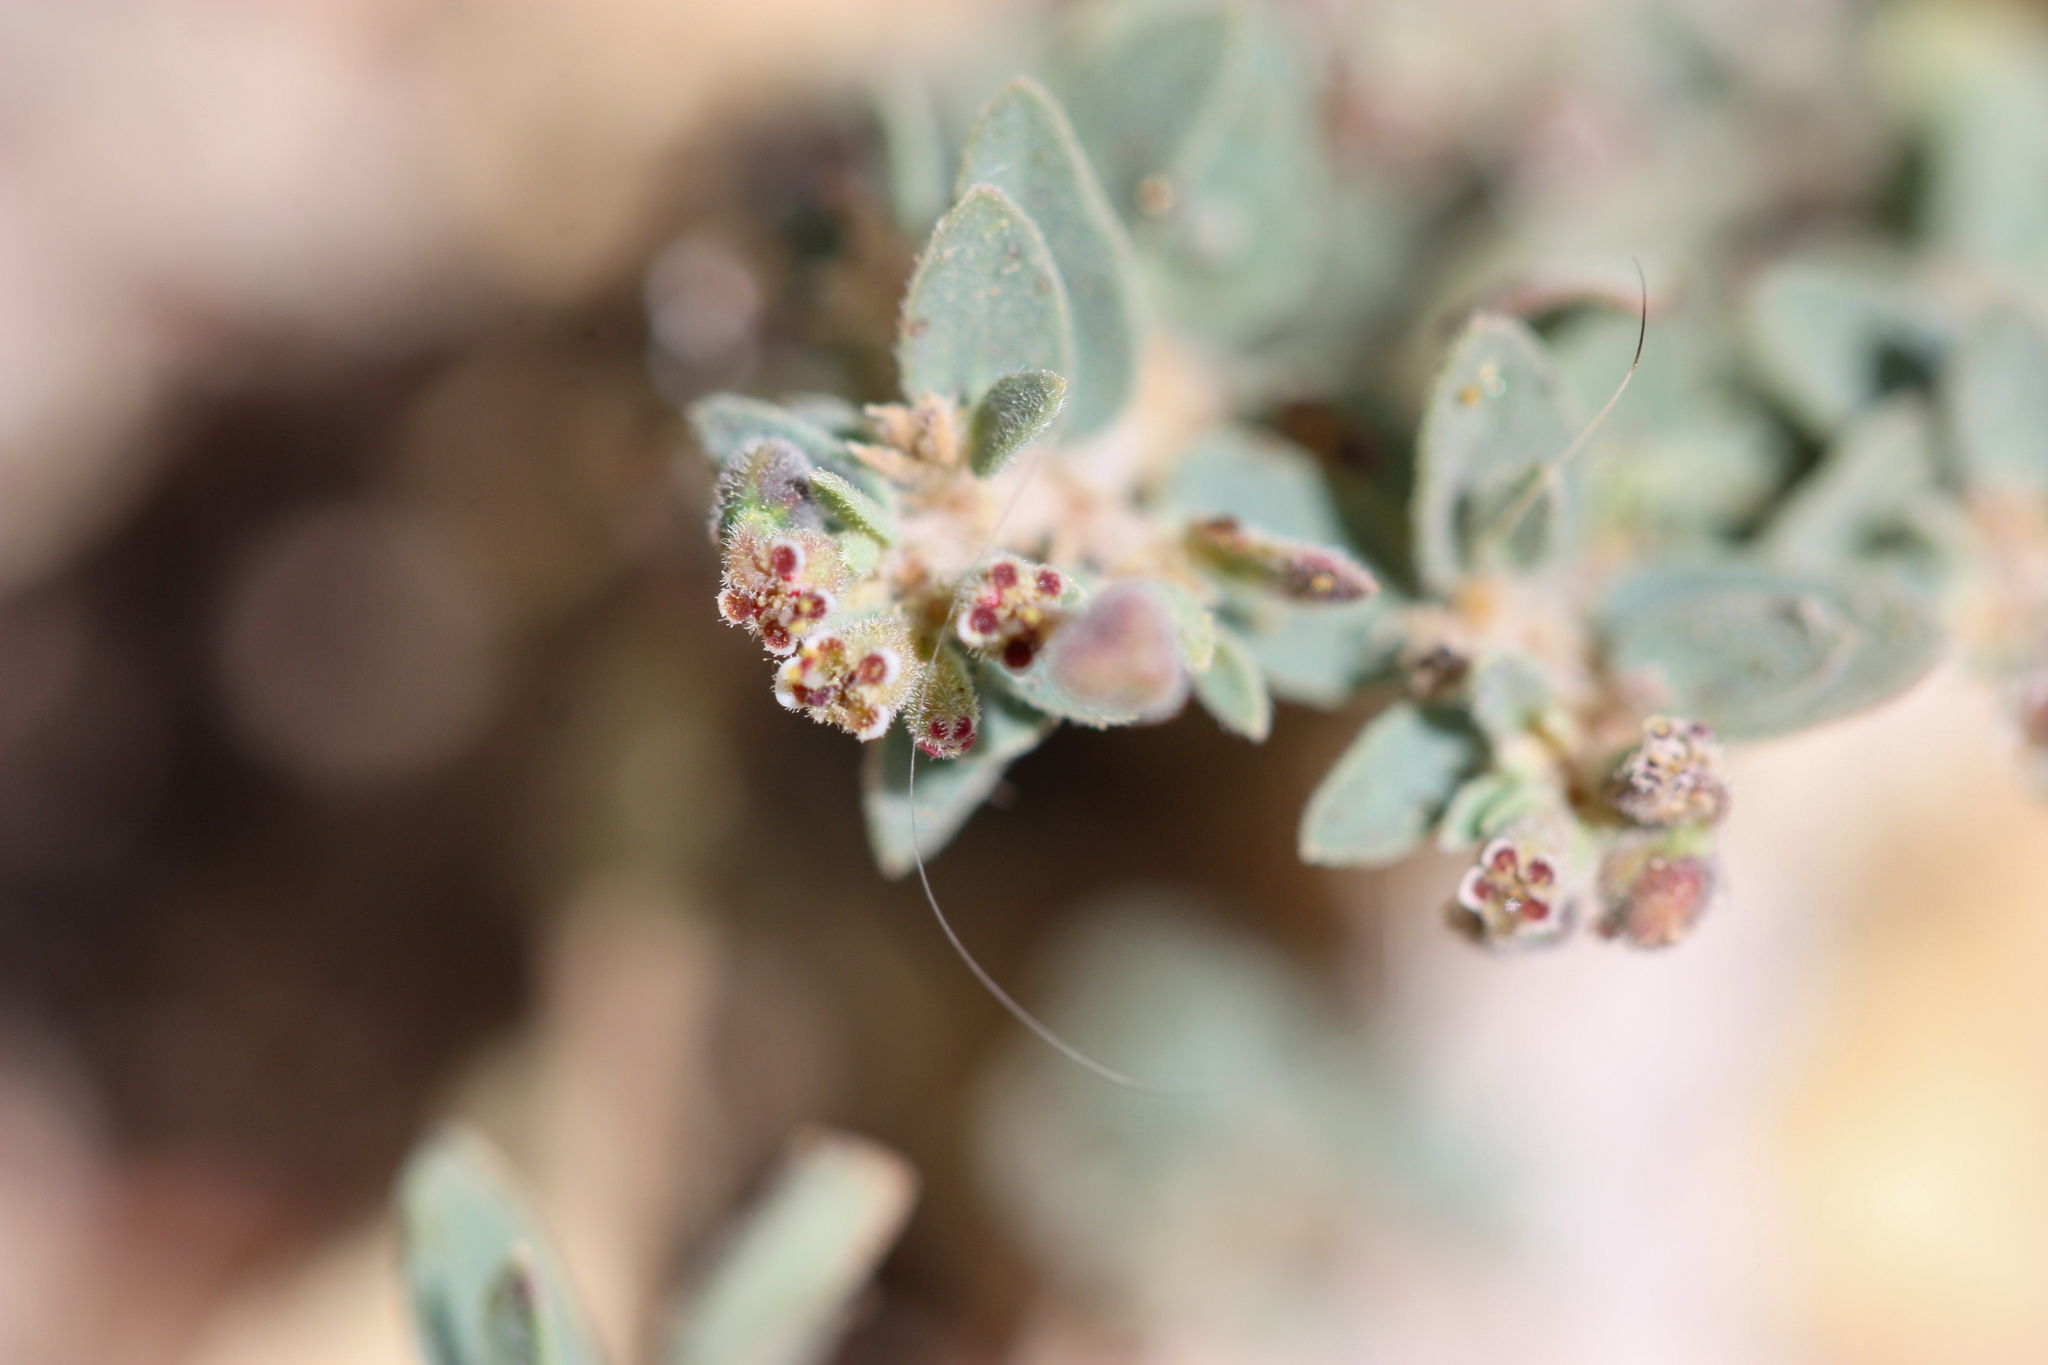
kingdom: Plantae
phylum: Tracheophyta
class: Magnoliopsida
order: Malpighiales
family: Euphorbiaceae
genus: Euphorbia
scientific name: Euphorbia capitellata
